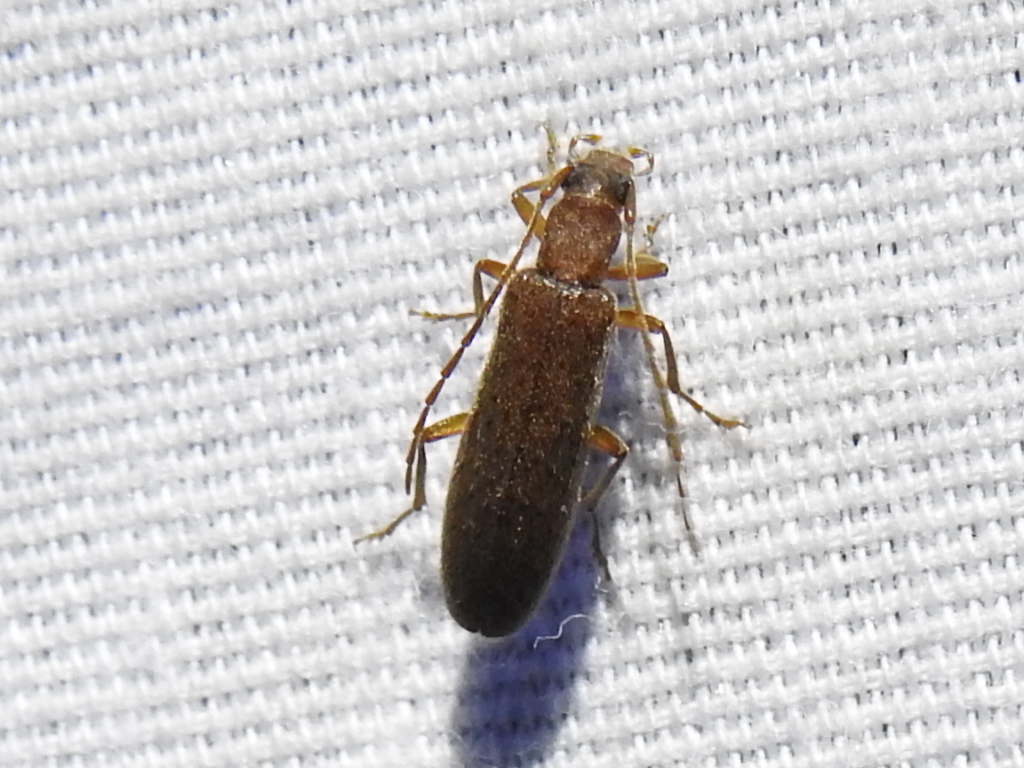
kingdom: Animalia
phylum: Arthropoda
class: Insecta
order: Coleoptera
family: Oedemeridae
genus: Sparedrus
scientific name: Sparedrus aspersus
